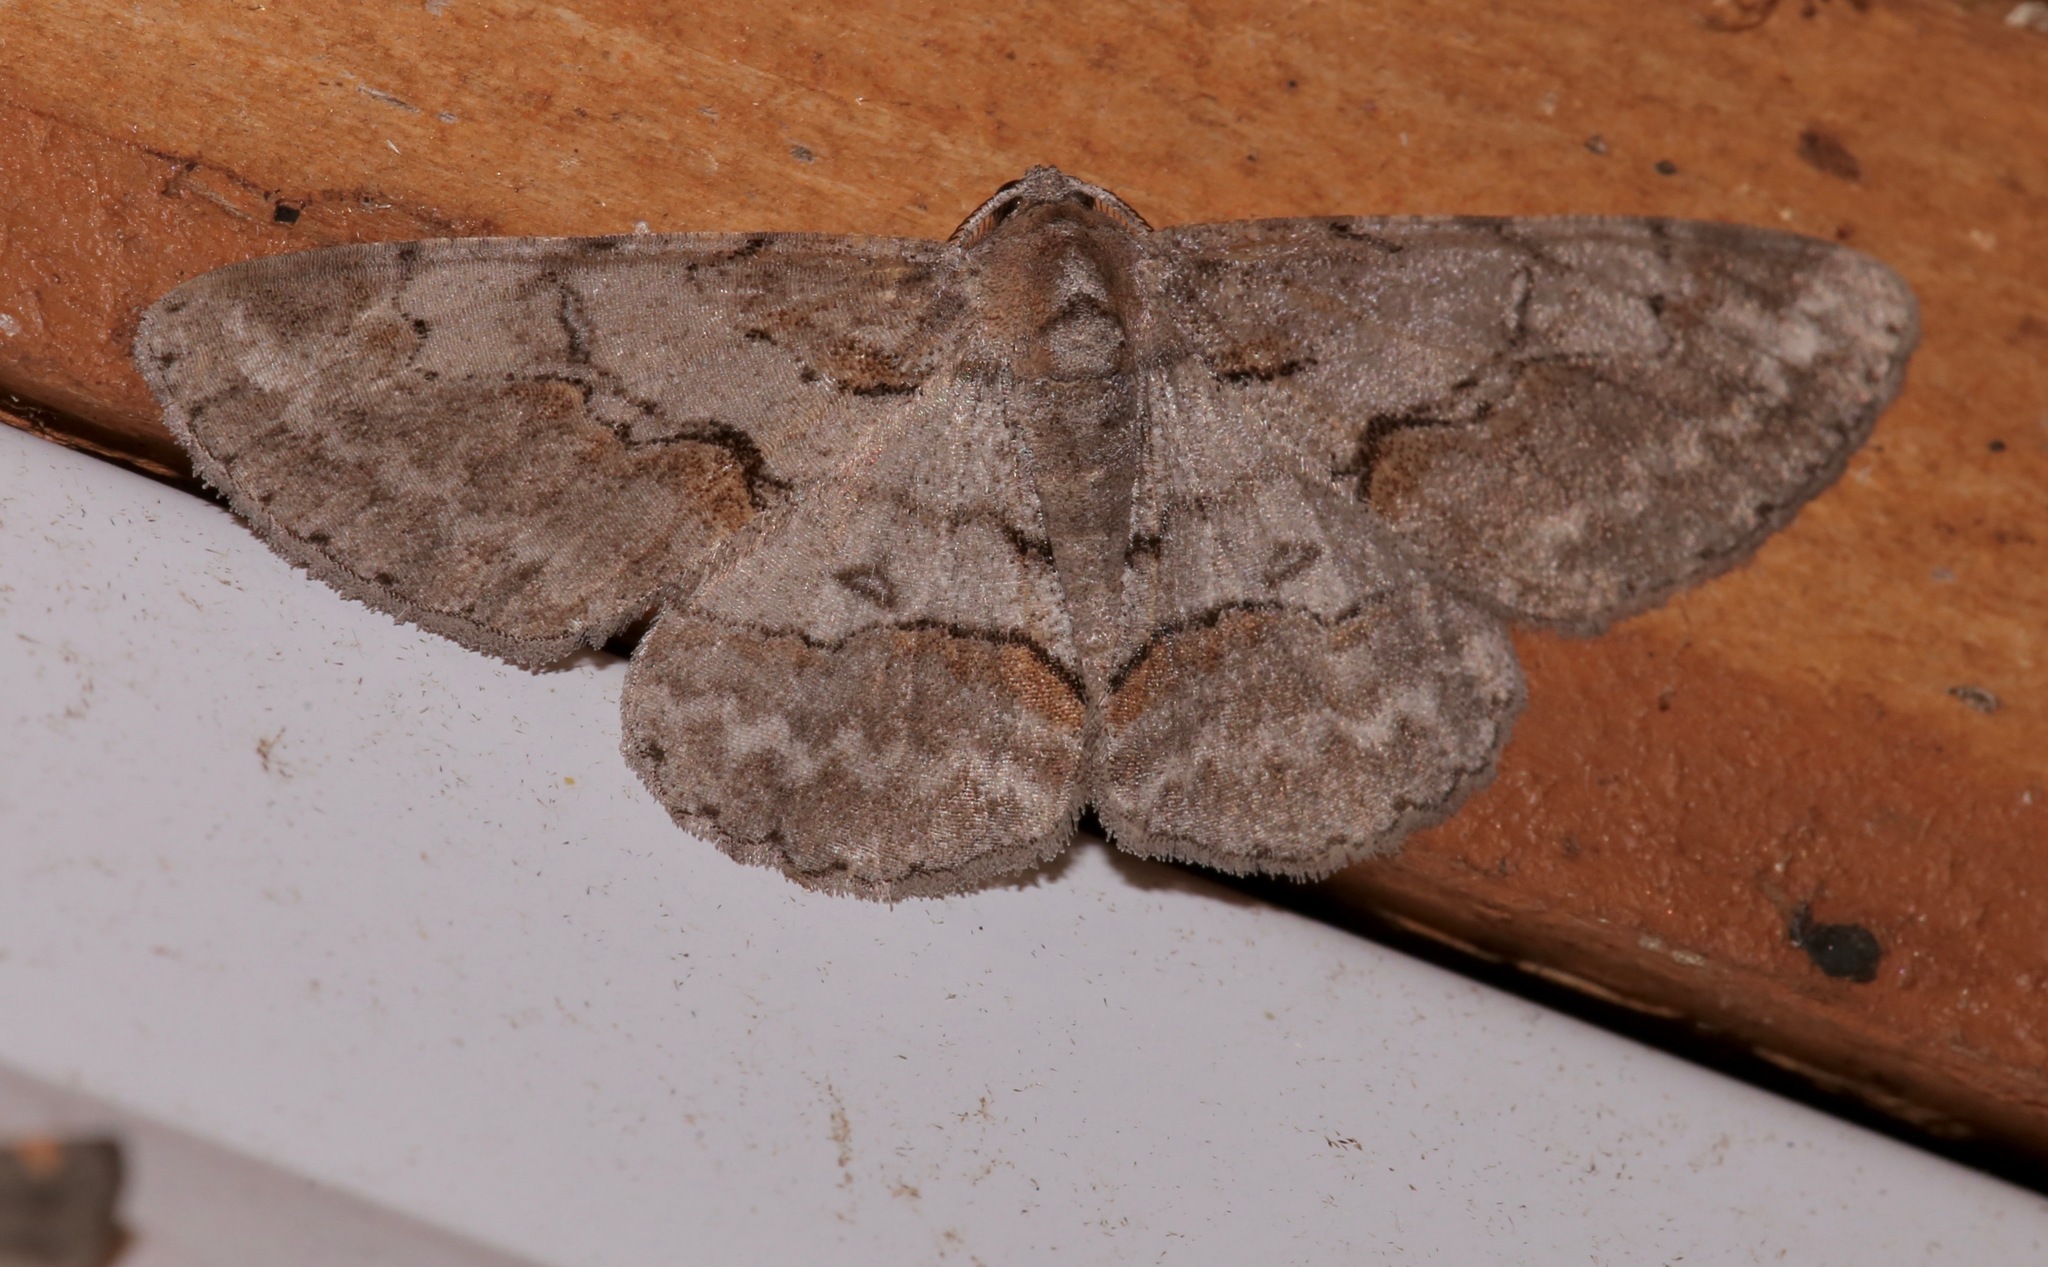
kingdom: Animalia
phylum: Arthropoda
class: Insecta
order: Lepidoptera
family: Geometridae
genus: Iridopsis
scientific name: Iridopsis vellivolata
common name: Large purplish gray
